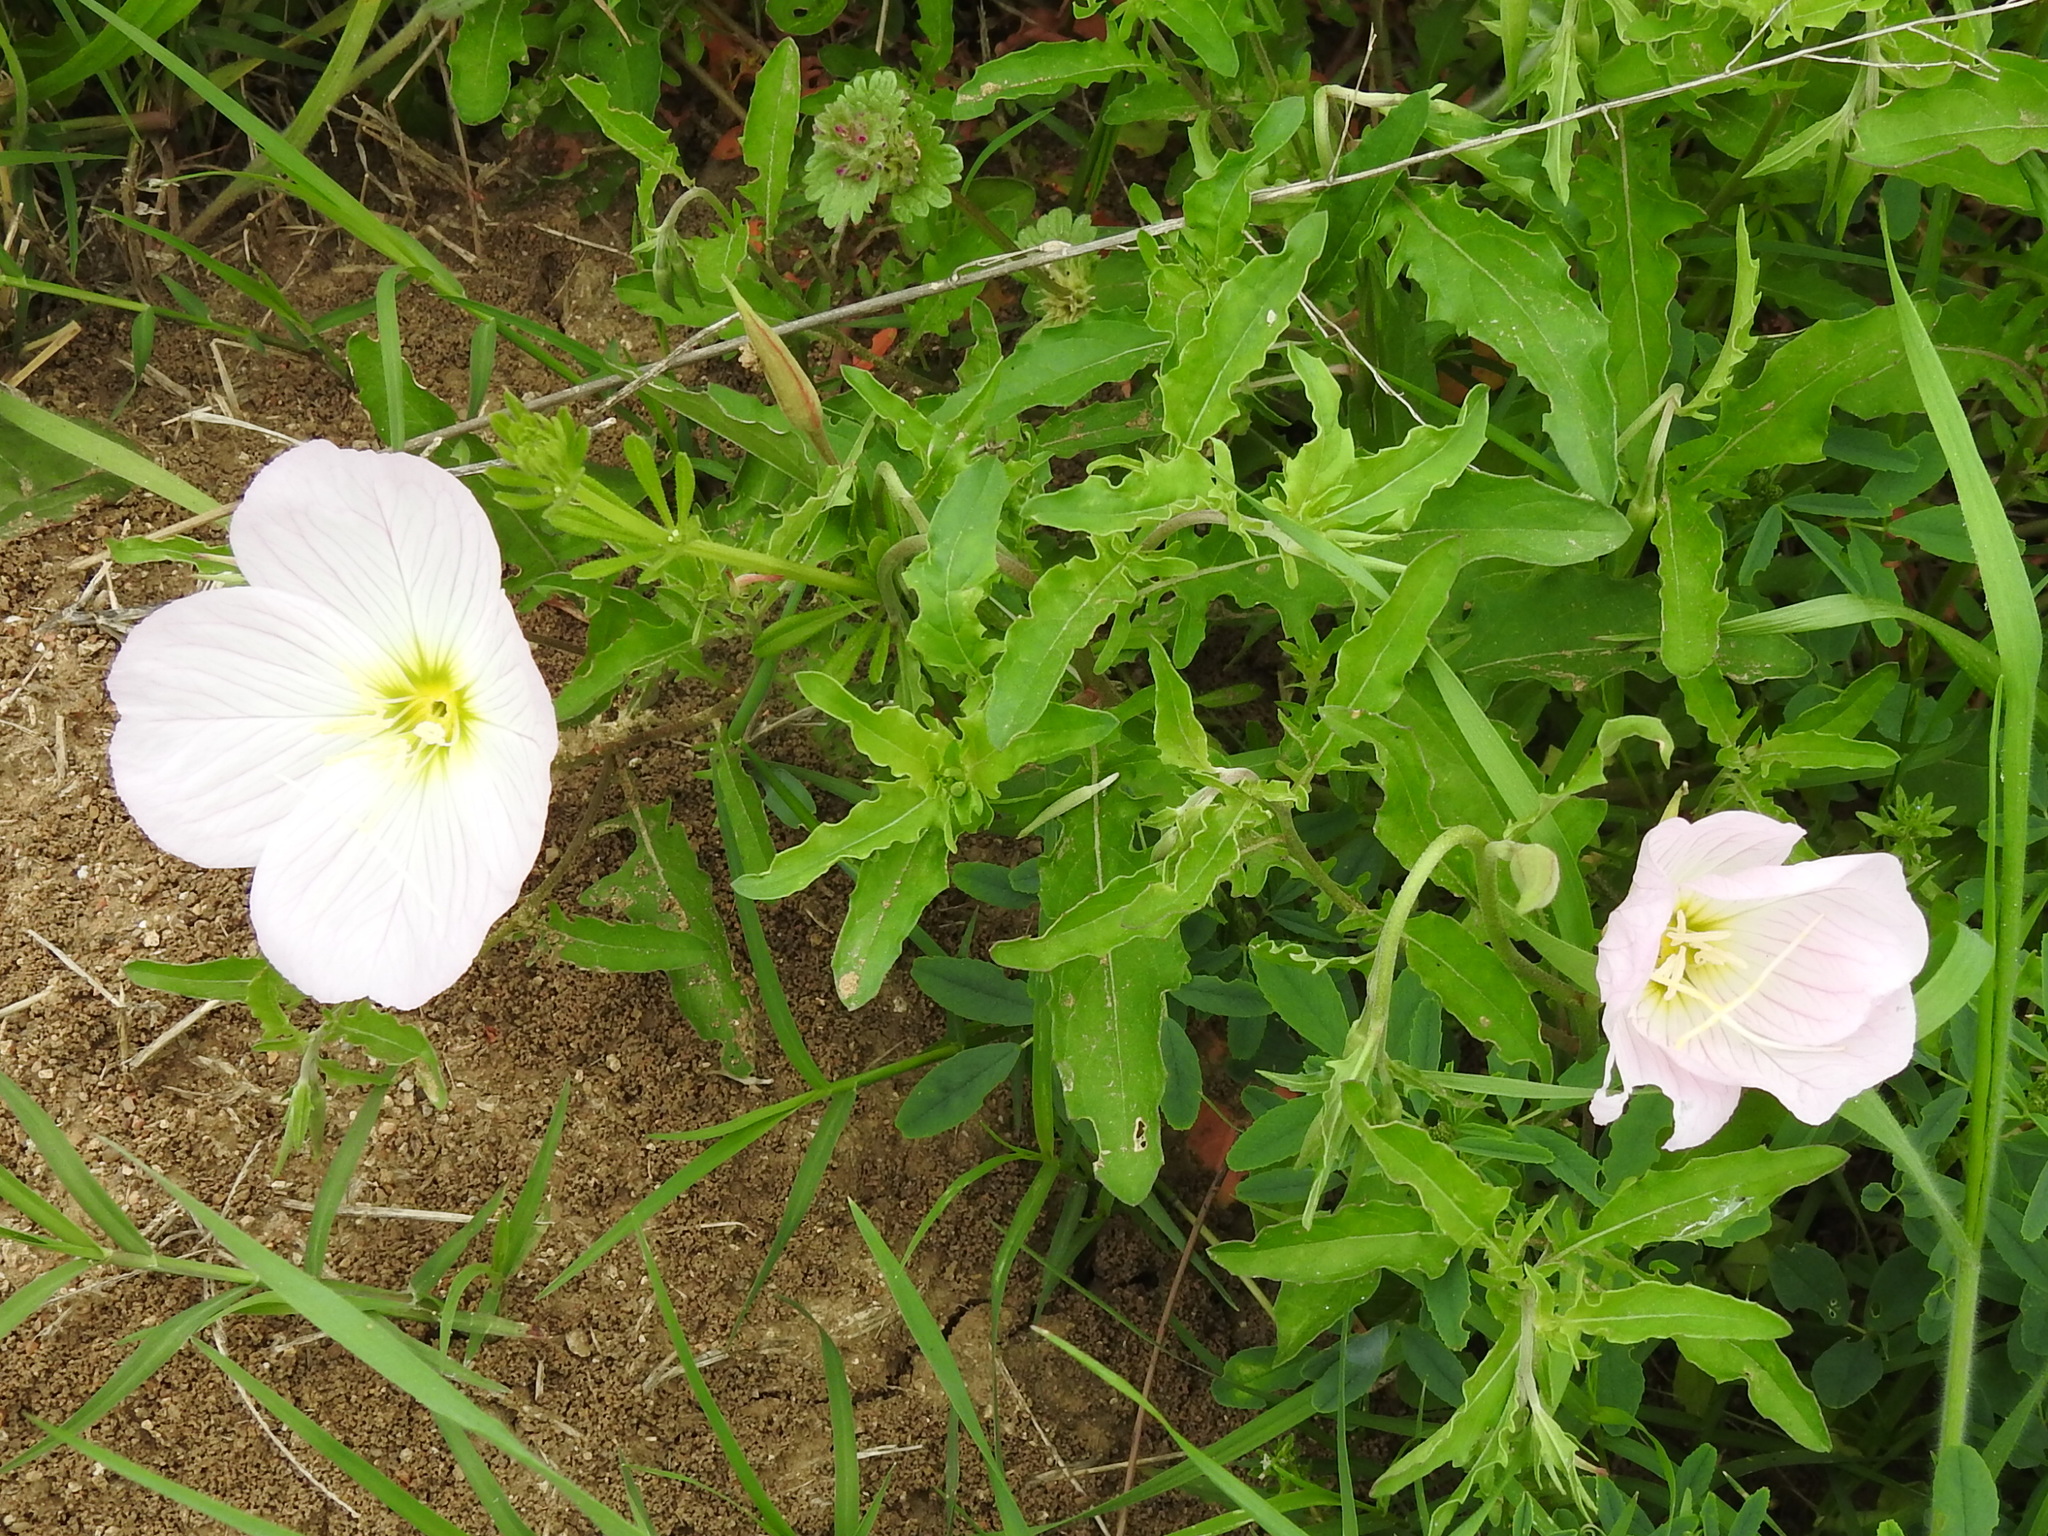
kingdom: Plantae
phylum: Tracheophyta
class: Magnoliopsida
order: Myrtales
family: Onagraceae
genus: Oenothera
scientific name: Oenothera speciosa
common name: White evening-primrose
